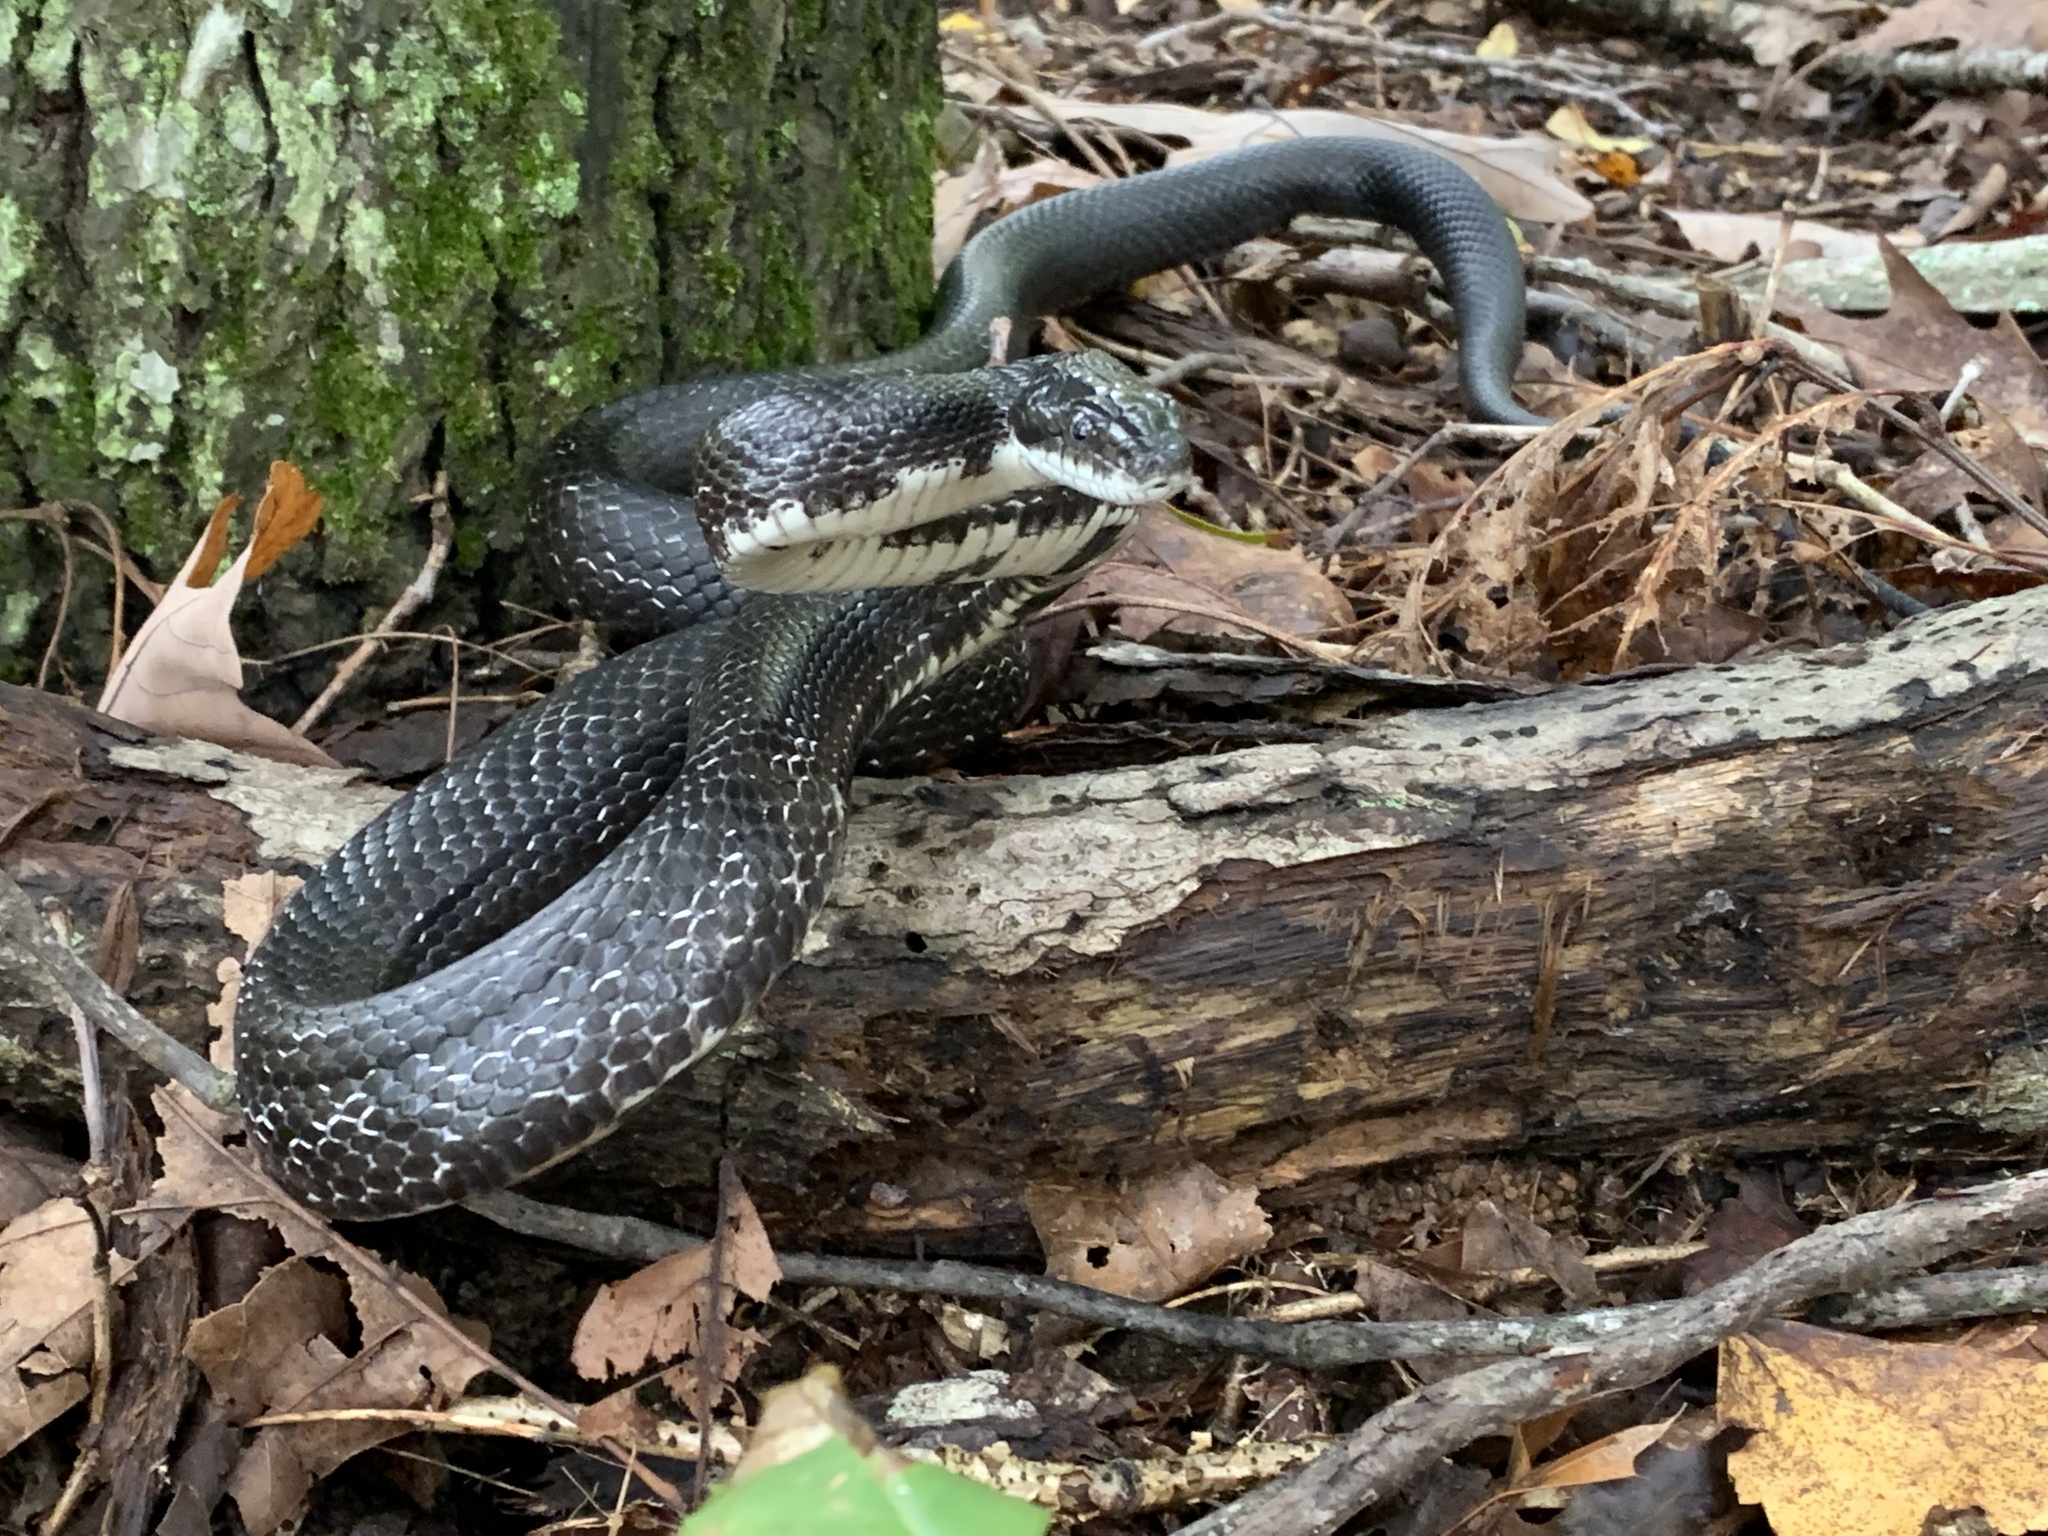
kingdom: Animalia
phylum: Chordata
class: Squamata
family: Colubridae
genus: Pantherophis
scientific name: Pantherophis alleghaniensis
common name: Eastern rat snake
